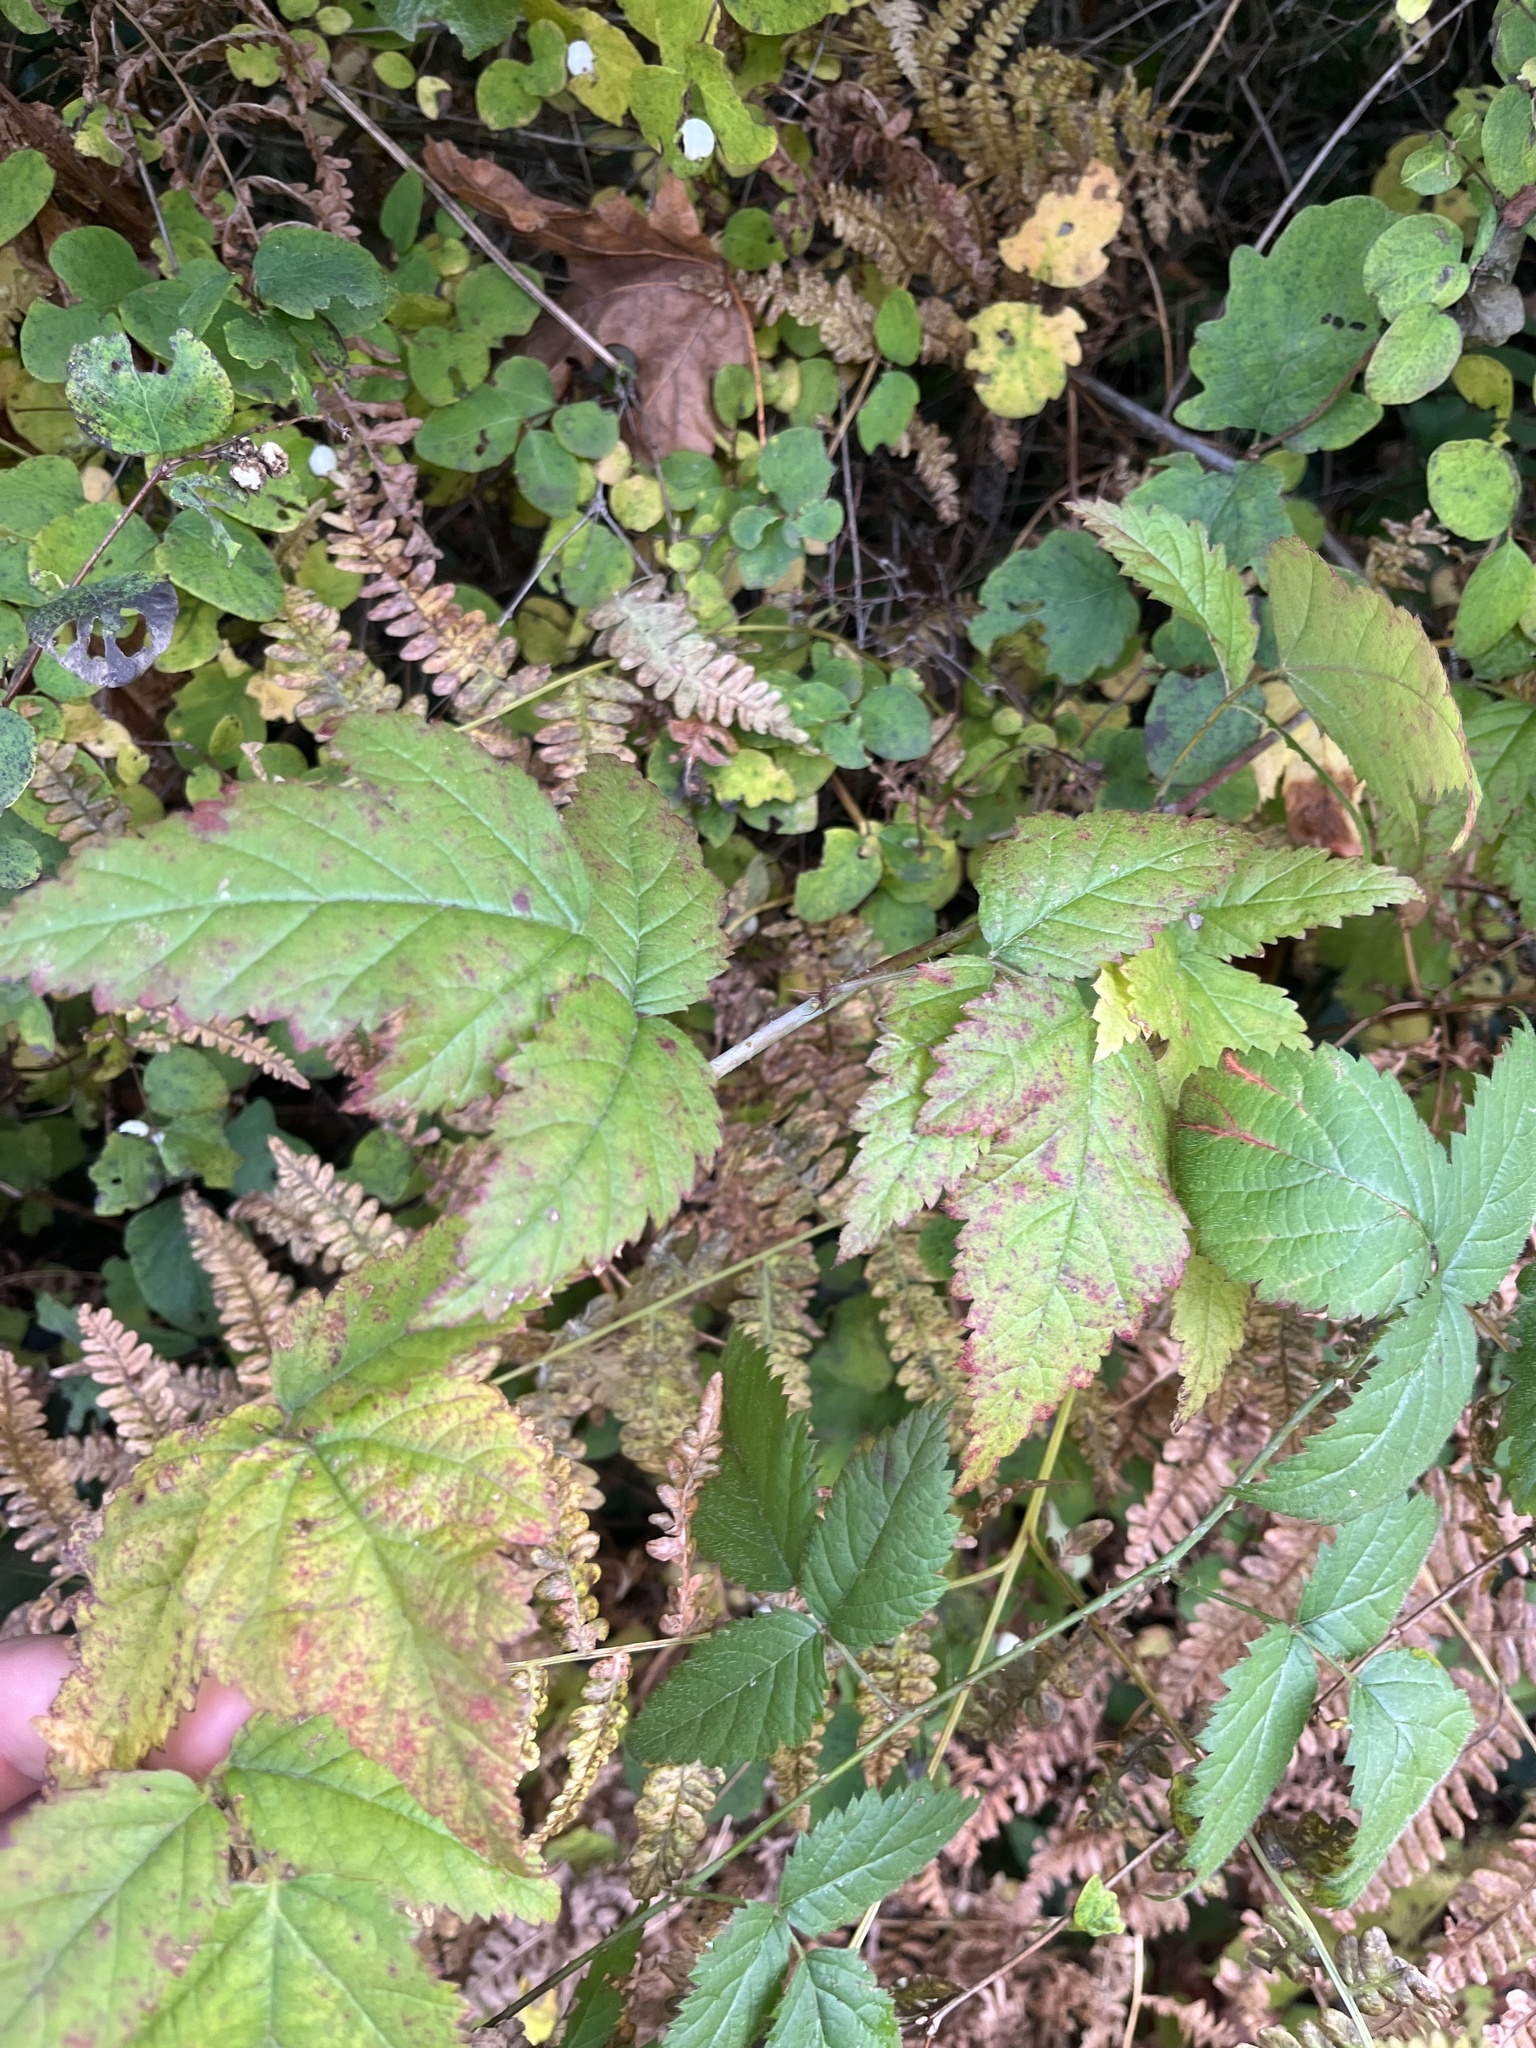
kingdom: Plantae
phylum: Tracheophyta
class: Magnoliopsida
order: Rosales
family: Rosaceae
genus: Rubus
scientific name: Rubus ursinus
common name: Pacific blackberry
